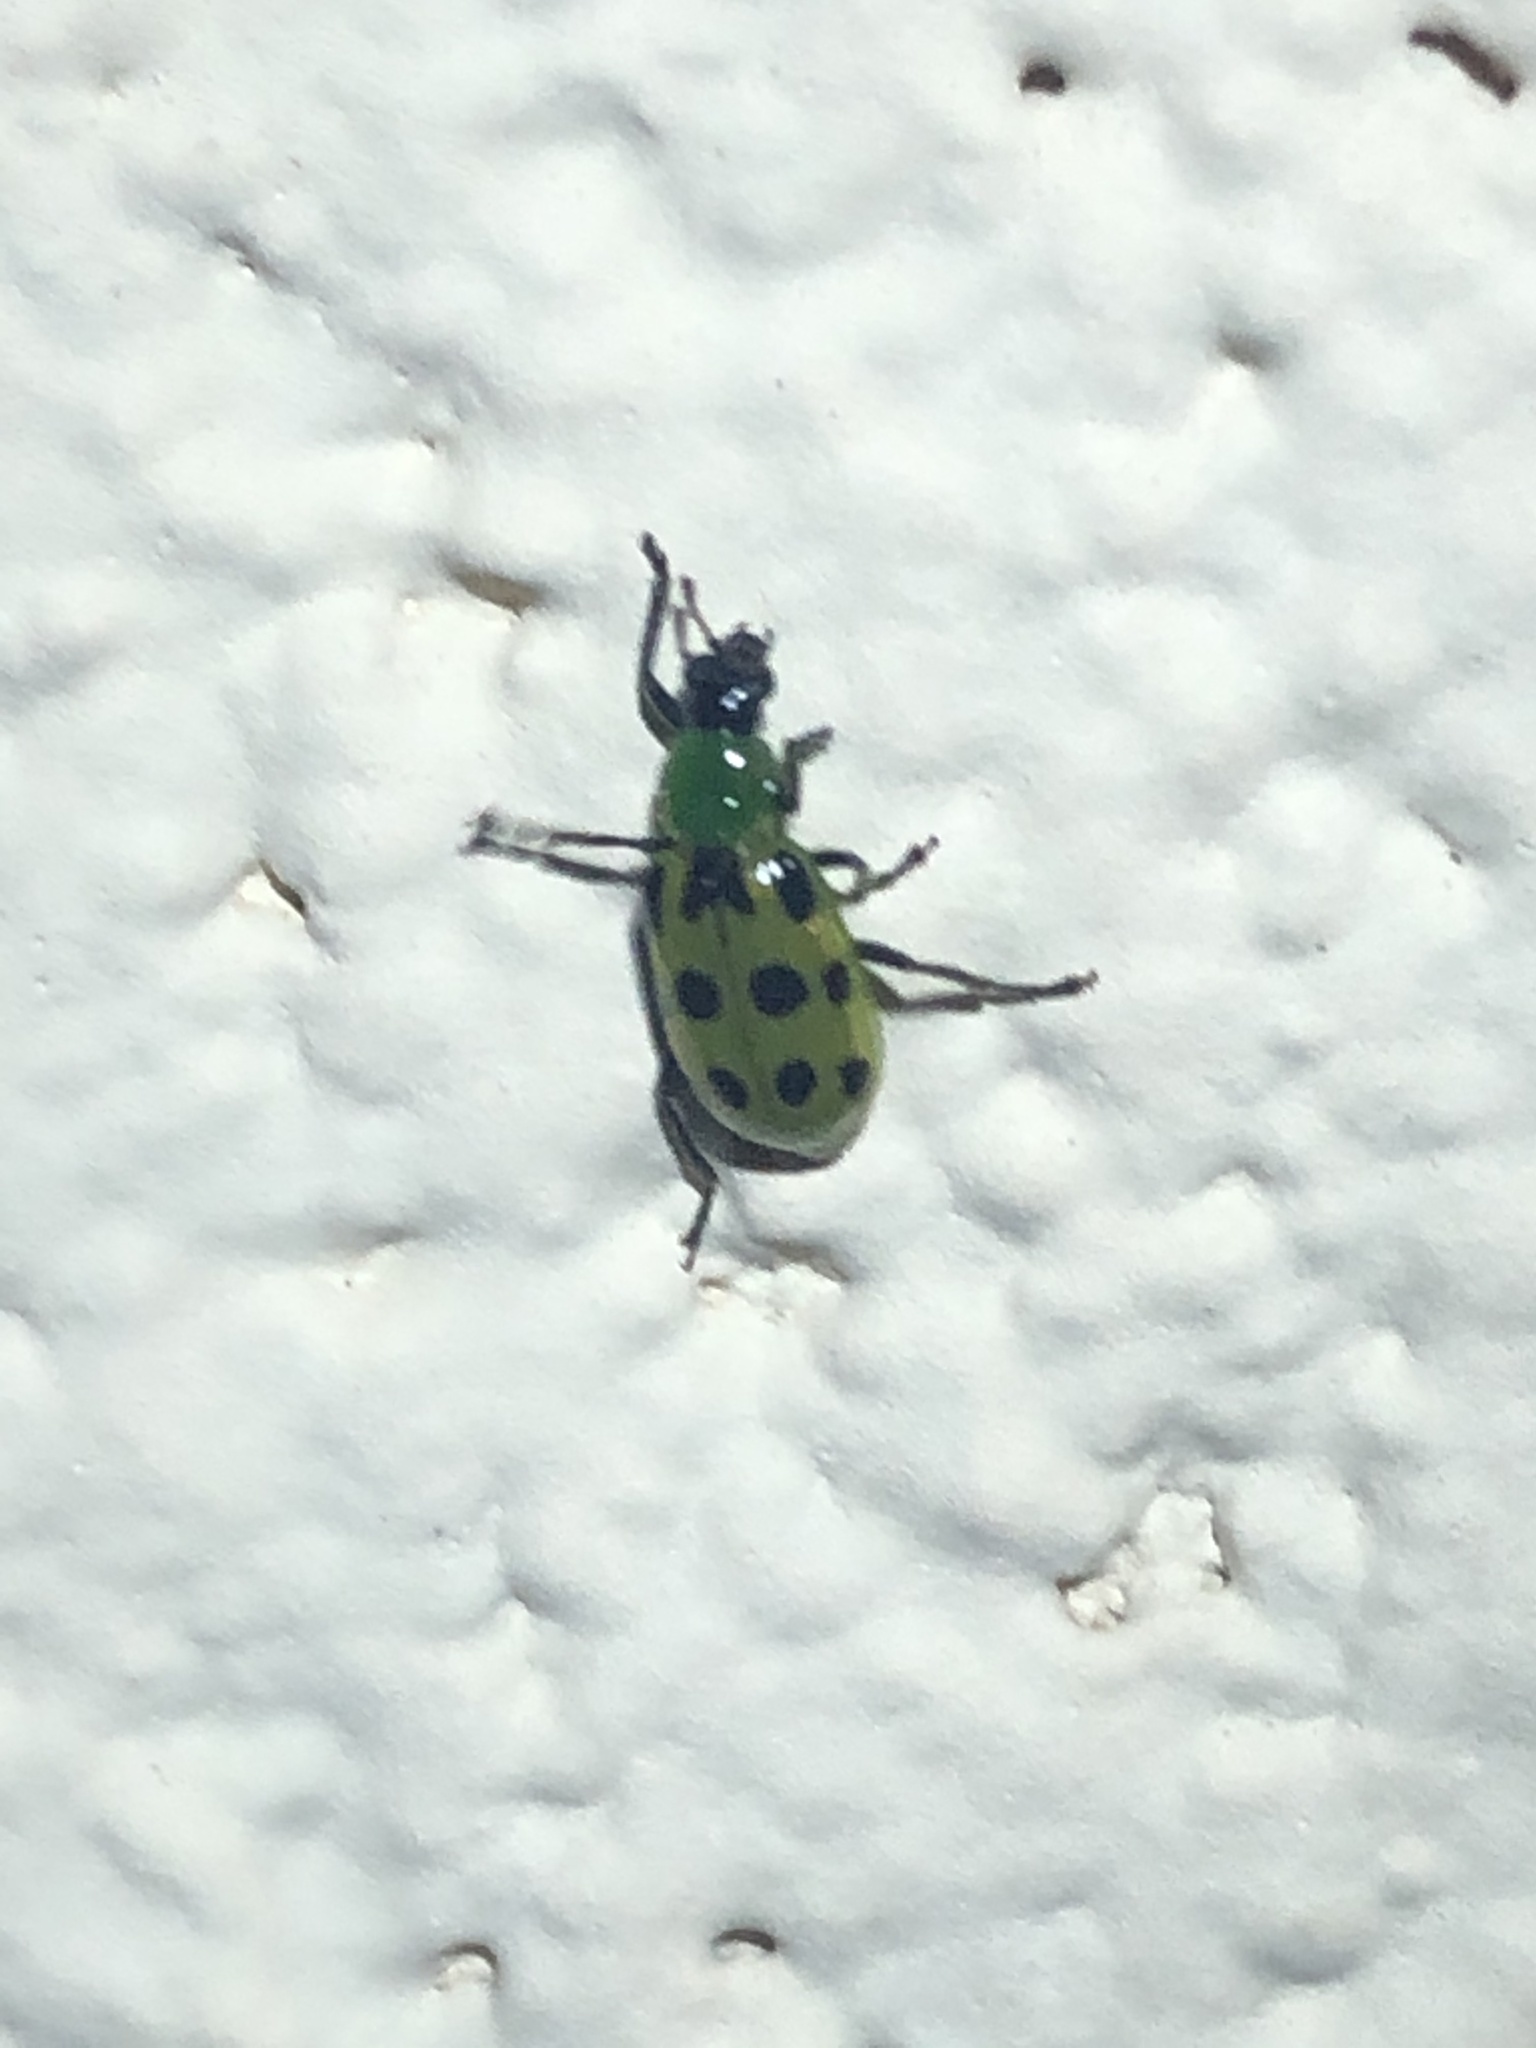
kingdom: Animalia
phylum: Arthropoda
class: Insecta
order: Coleoptera
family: Chrysomelidae
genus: Diabrotica
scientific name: Diabrotica undecimpunctata
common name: Spotted cucumber beetle
